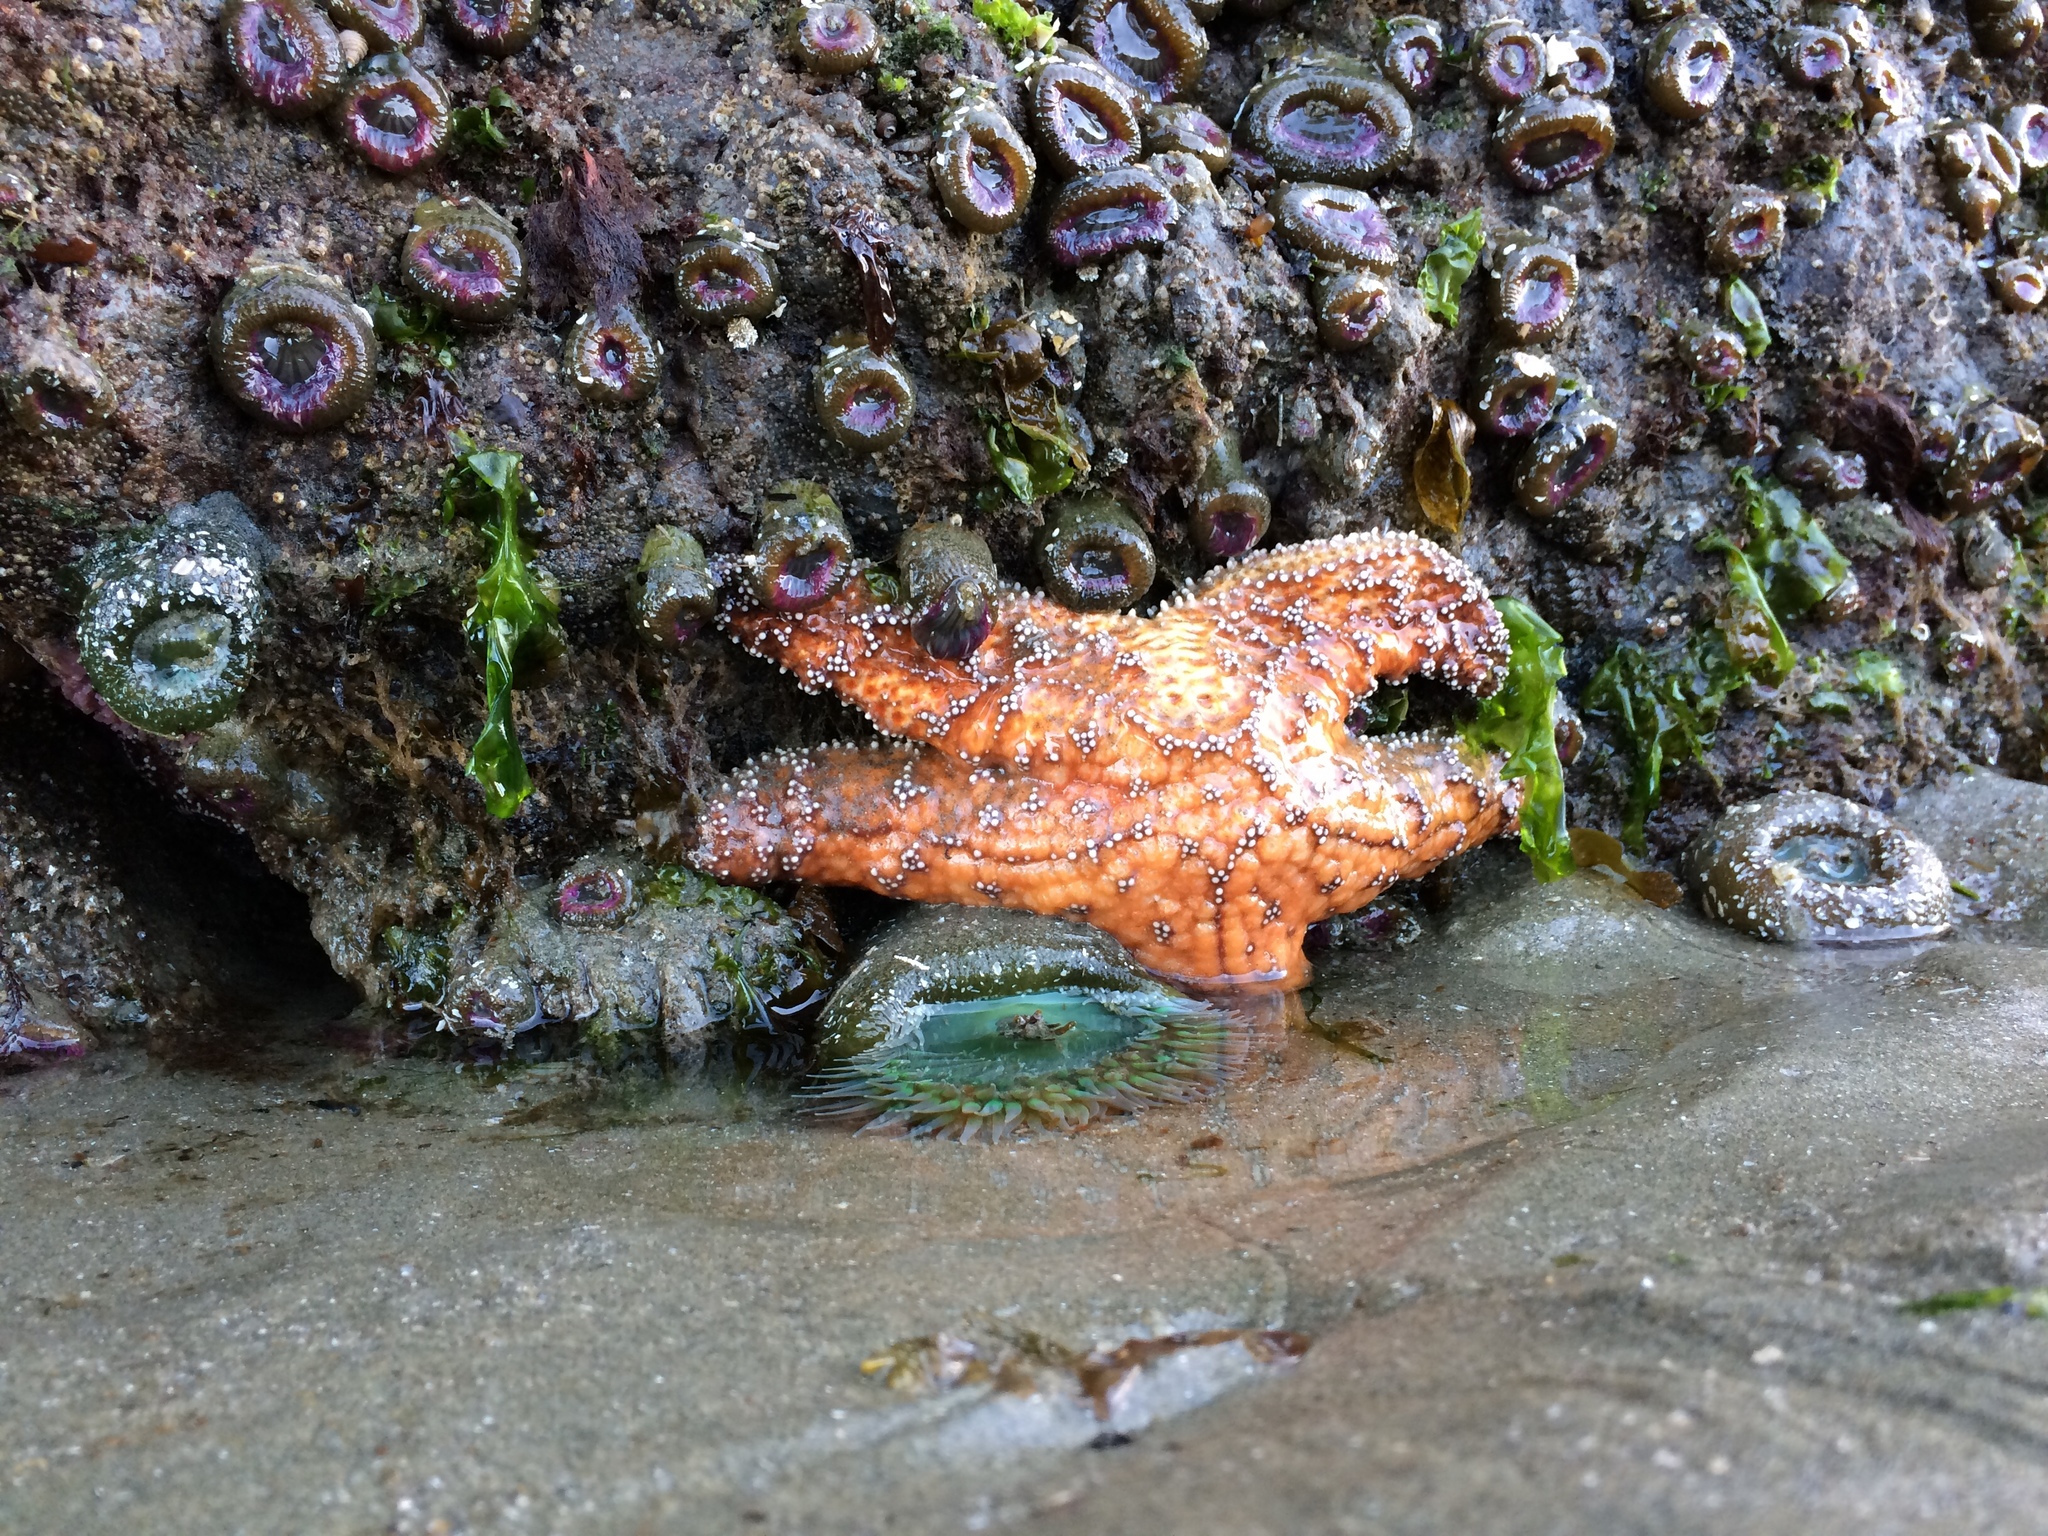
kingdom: Animalia
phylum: Echinodermata
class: Asteroidea
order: Forcipulatida
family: Asteriidae
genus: Pisaster
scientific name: Pisaster ochraceus
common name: Ochre stars
